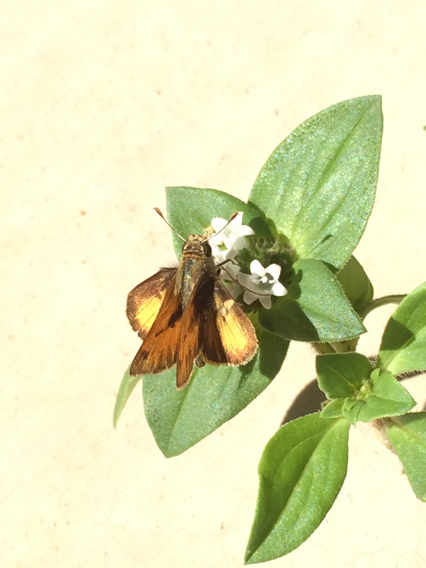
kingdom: Animalia
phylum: Arthropoda
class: Insecta
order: Lepidoptera
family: Hesperiidae
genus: Polites
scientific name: Polites vibex
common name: Whirlabout
